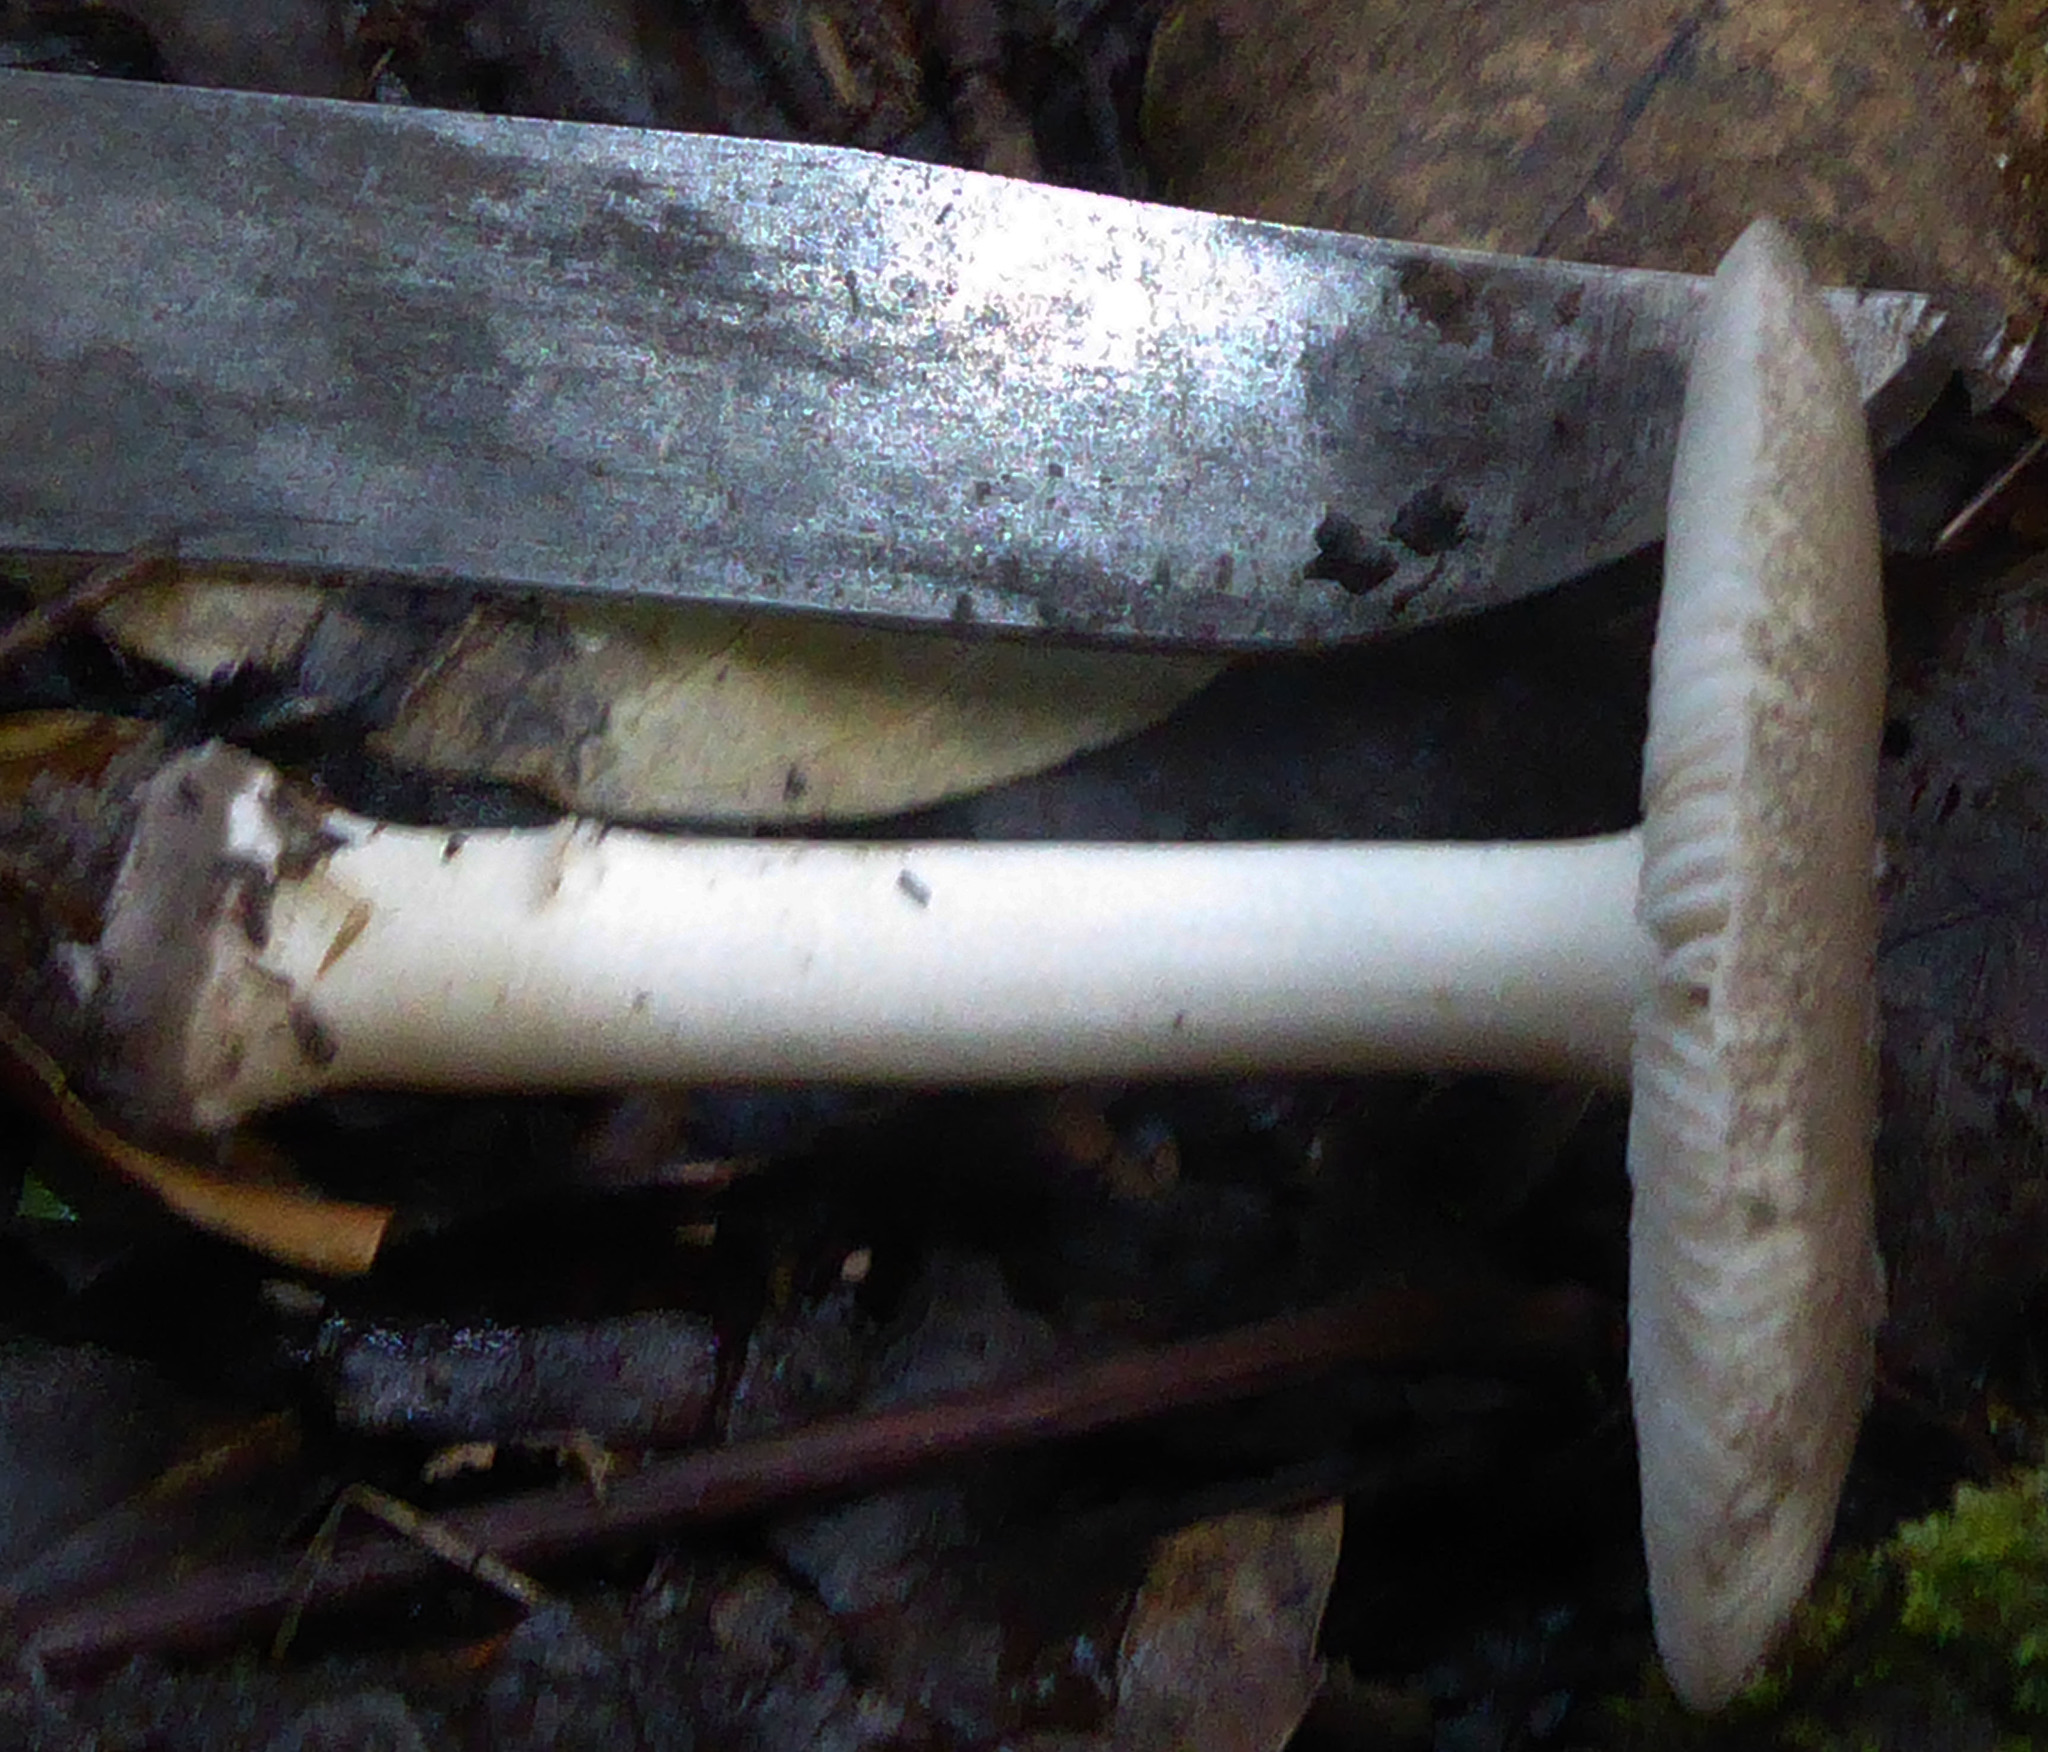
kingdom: Fungi
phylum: Basidiomycota
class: Agaricomycetes
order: Agaricales
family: Amanitaceae
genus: Amanita
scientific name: Amanita nehuta
